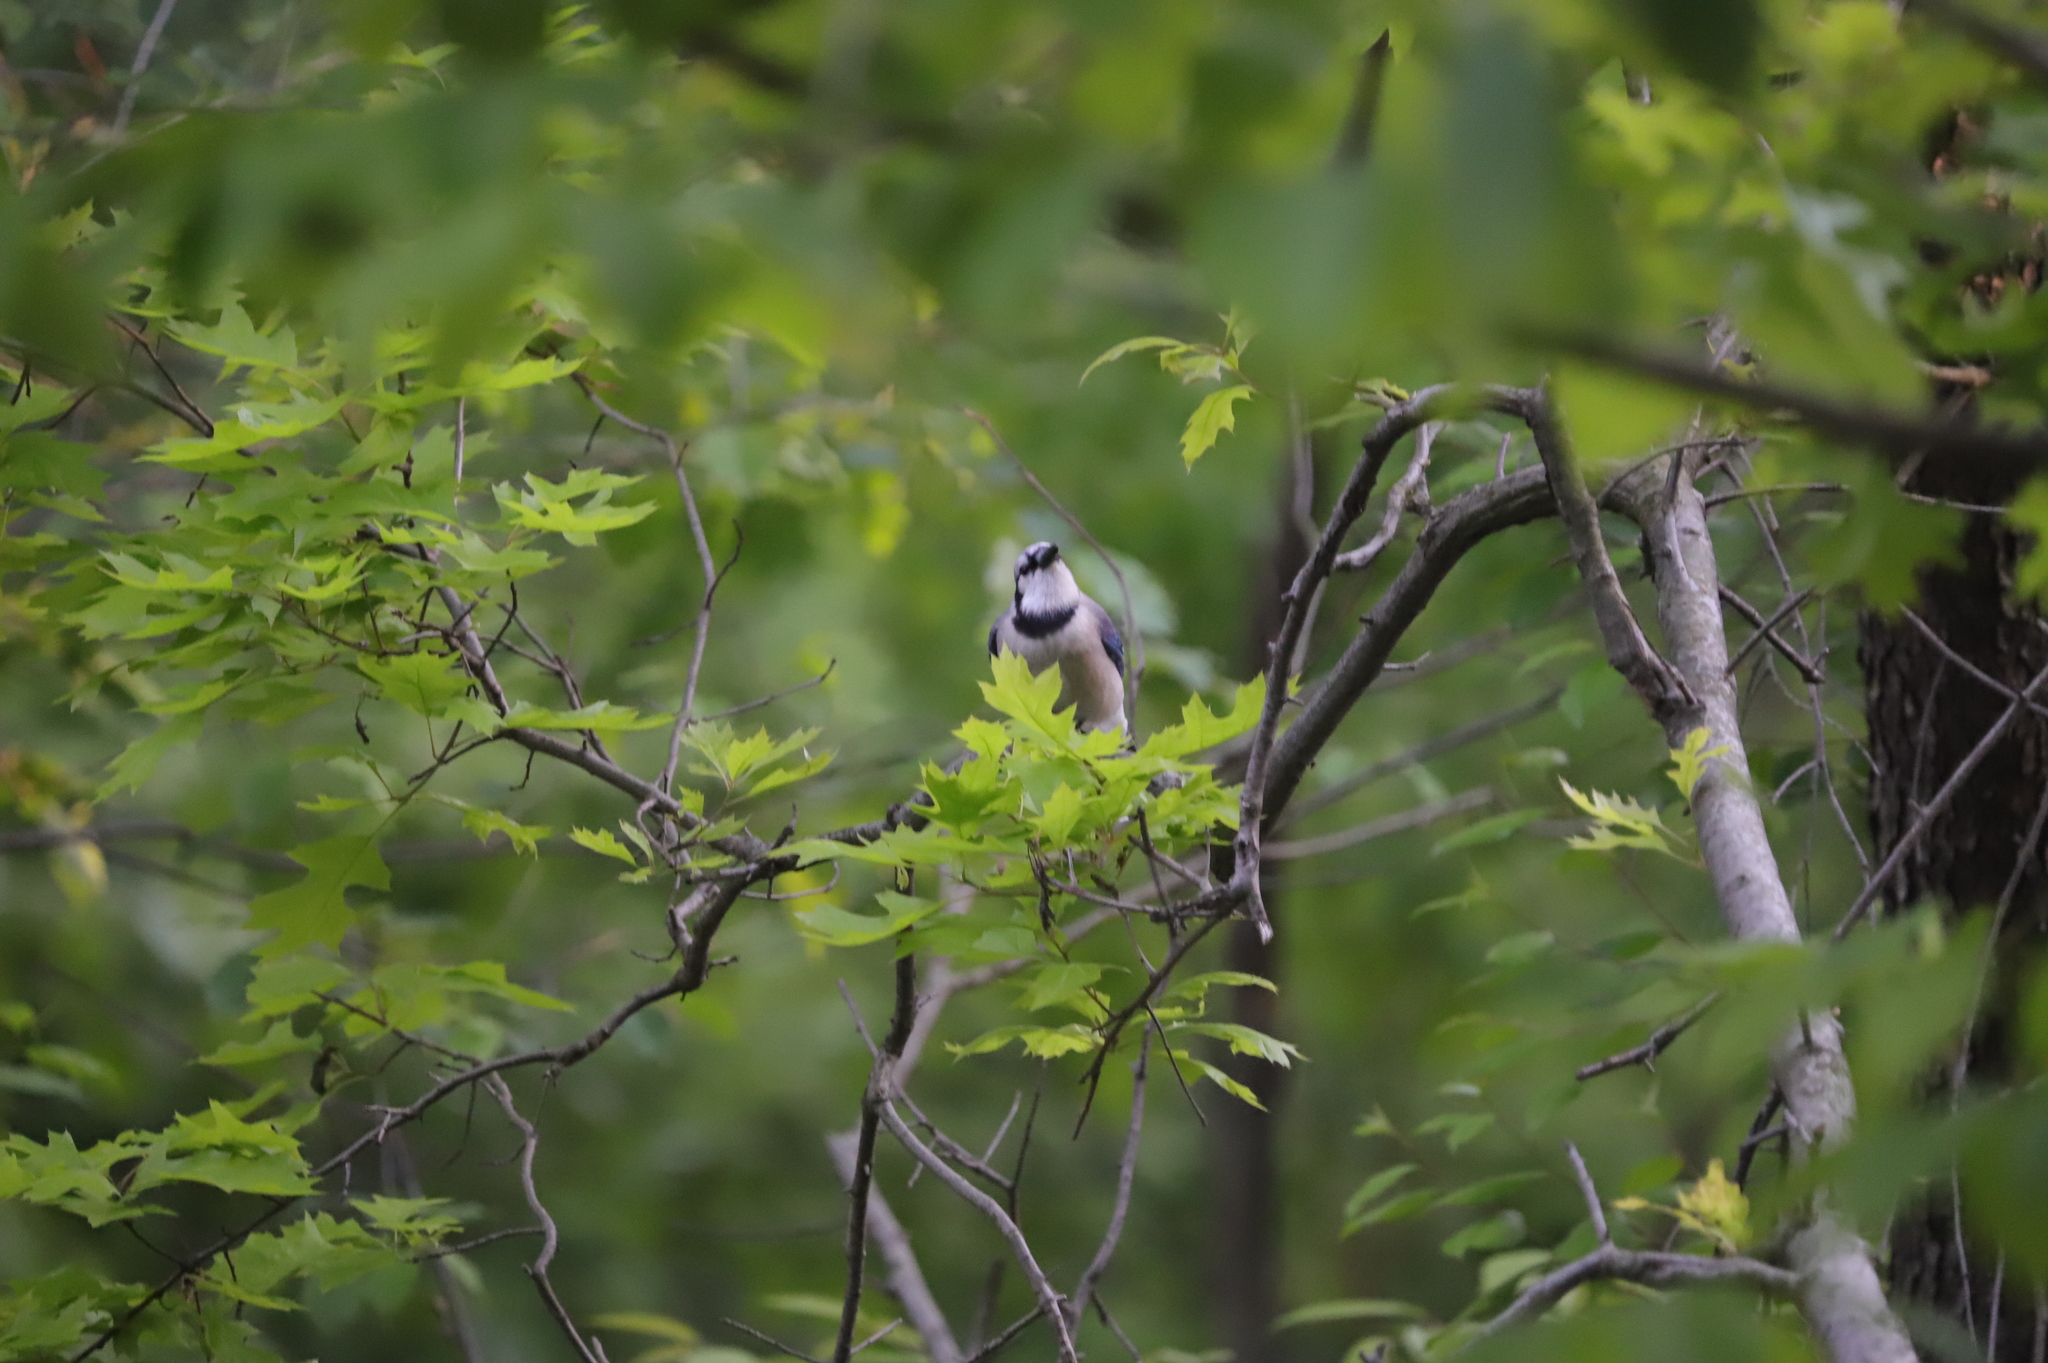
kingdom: Animalia
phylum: Chordata
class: Aves
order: Passeriformes
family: Corvidae
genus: Cyanocitta
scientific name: Cyanocitta cristata
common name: Blue jay
